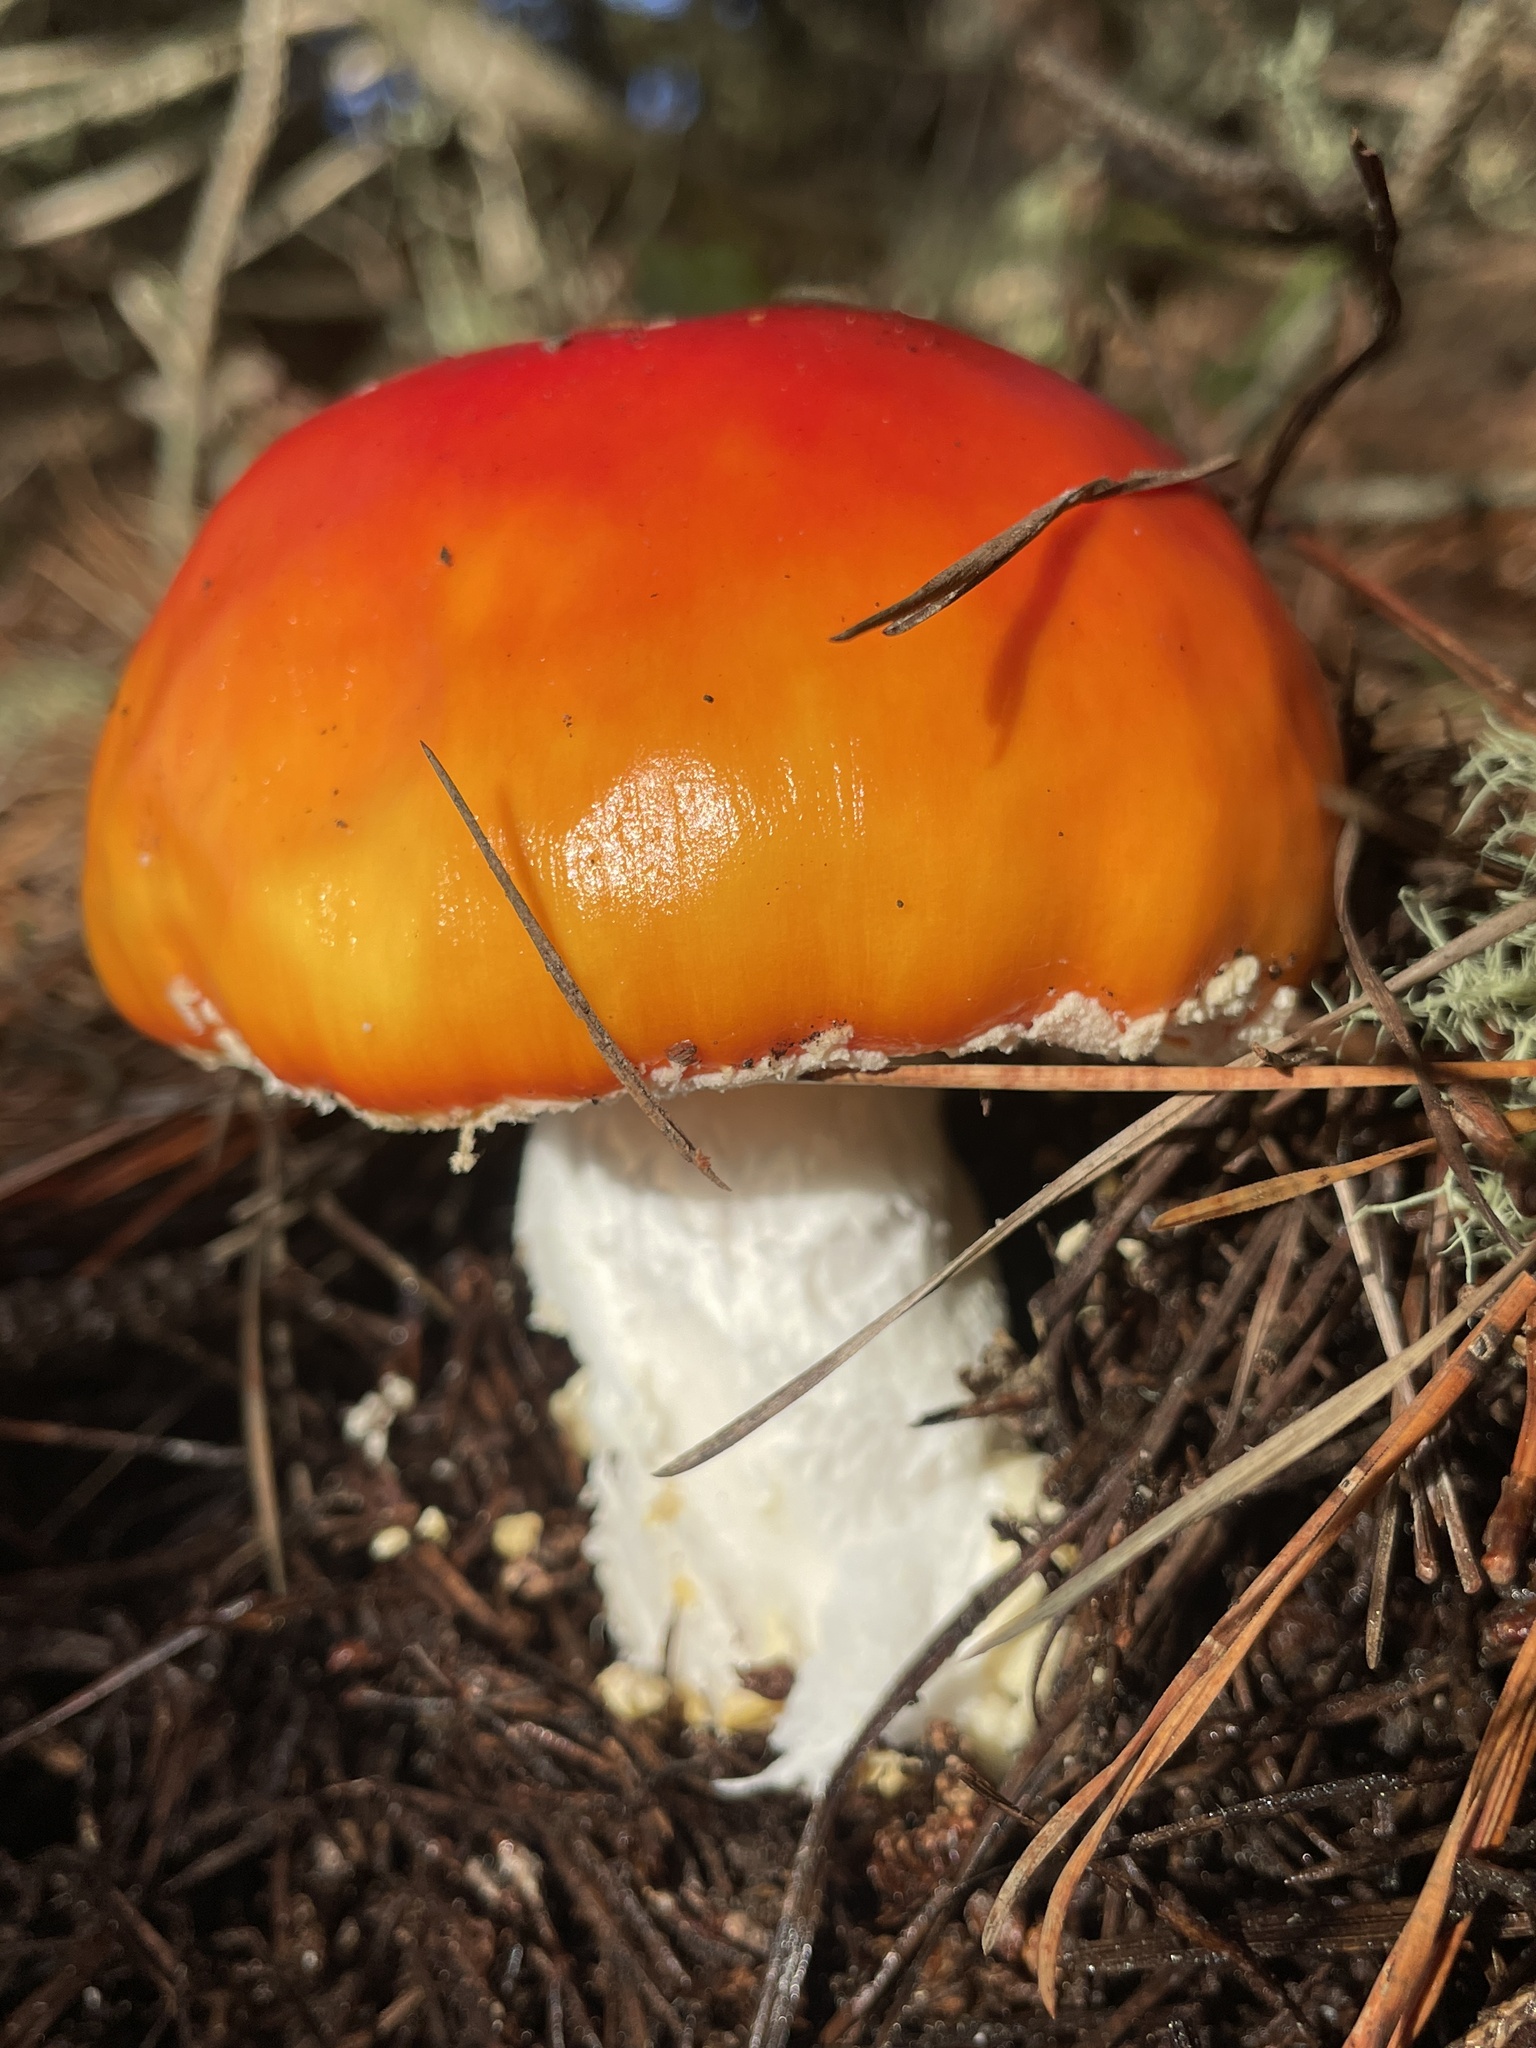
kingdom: Fungi
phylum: Basidiomycota
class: Agaricomycetes
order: Agaricales
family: Amanitaceae
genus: Amanita
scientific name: Amanita muscaria
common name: Fly agaric
